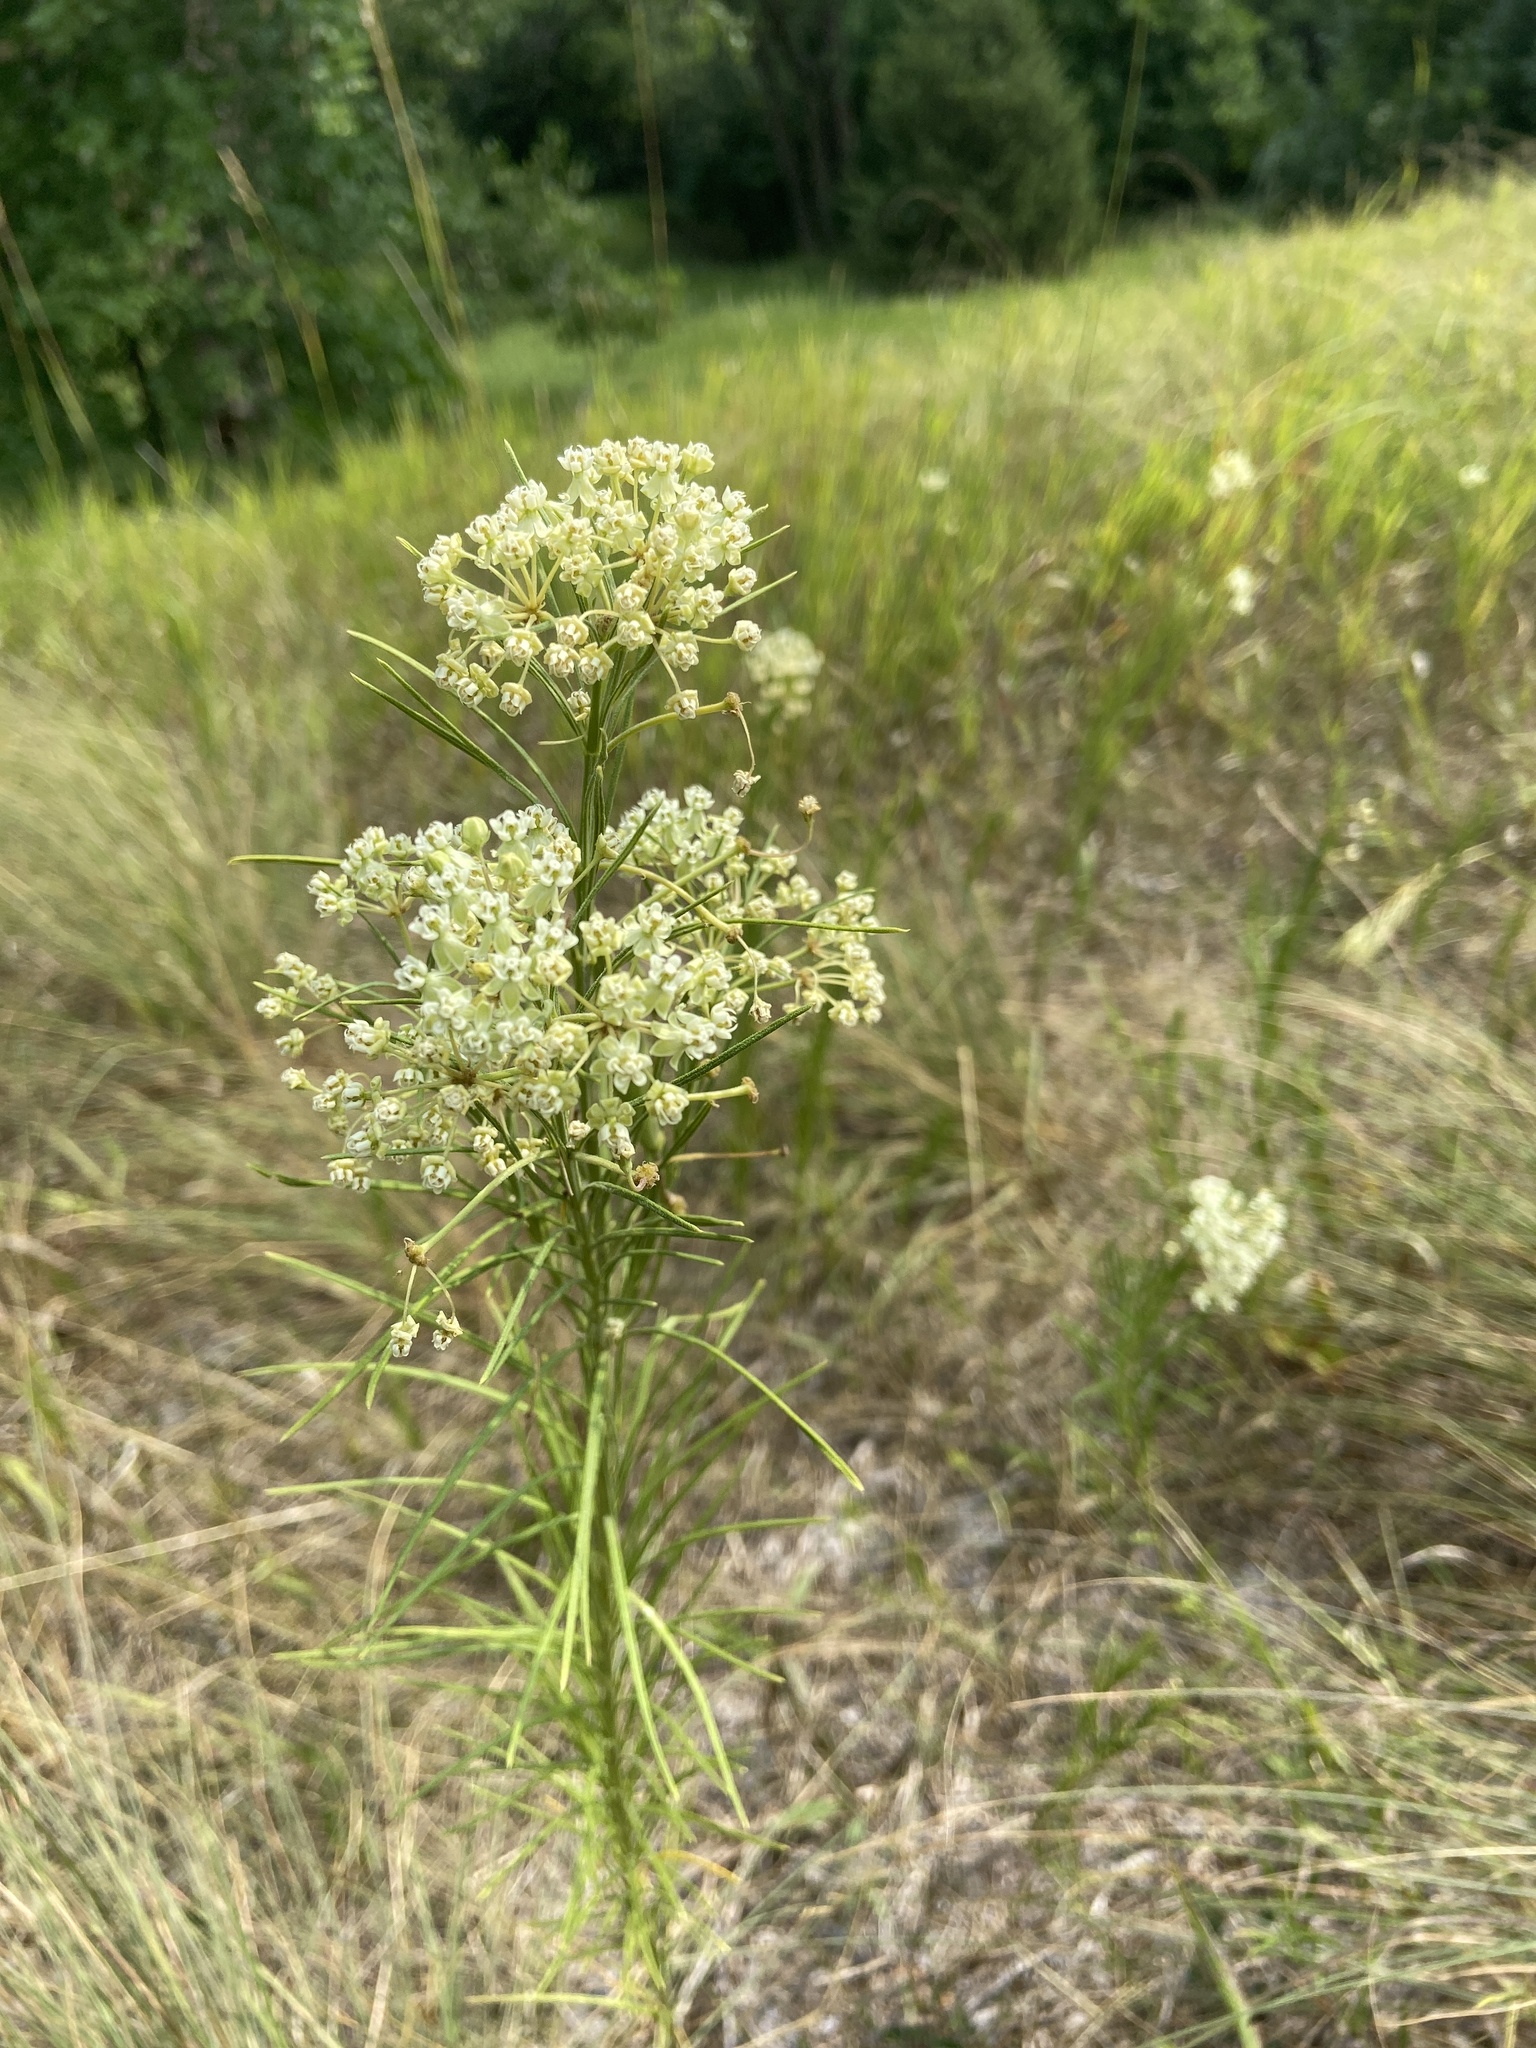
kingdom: Plantae
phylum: Tracheophyta
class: Magnoliopsida
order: Gentianales
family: Apocynaceae
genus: Asclepias
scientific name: Asclepias verticillata
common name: Eastern whorled milkweed
